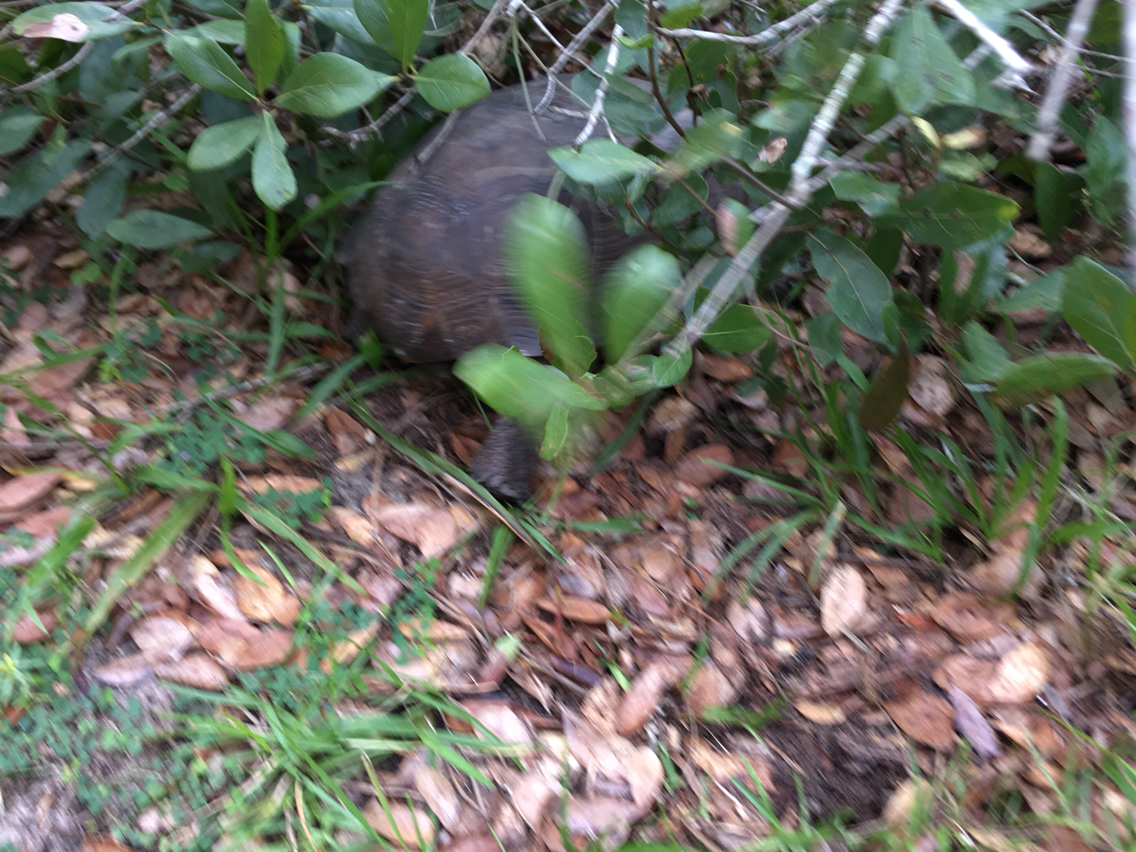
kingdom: Animalia
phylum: Chordata
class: Testudines
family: Testudinidae
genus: Gopherus
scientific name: Gopherus polyphemus
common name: Florida gopher tortoise
